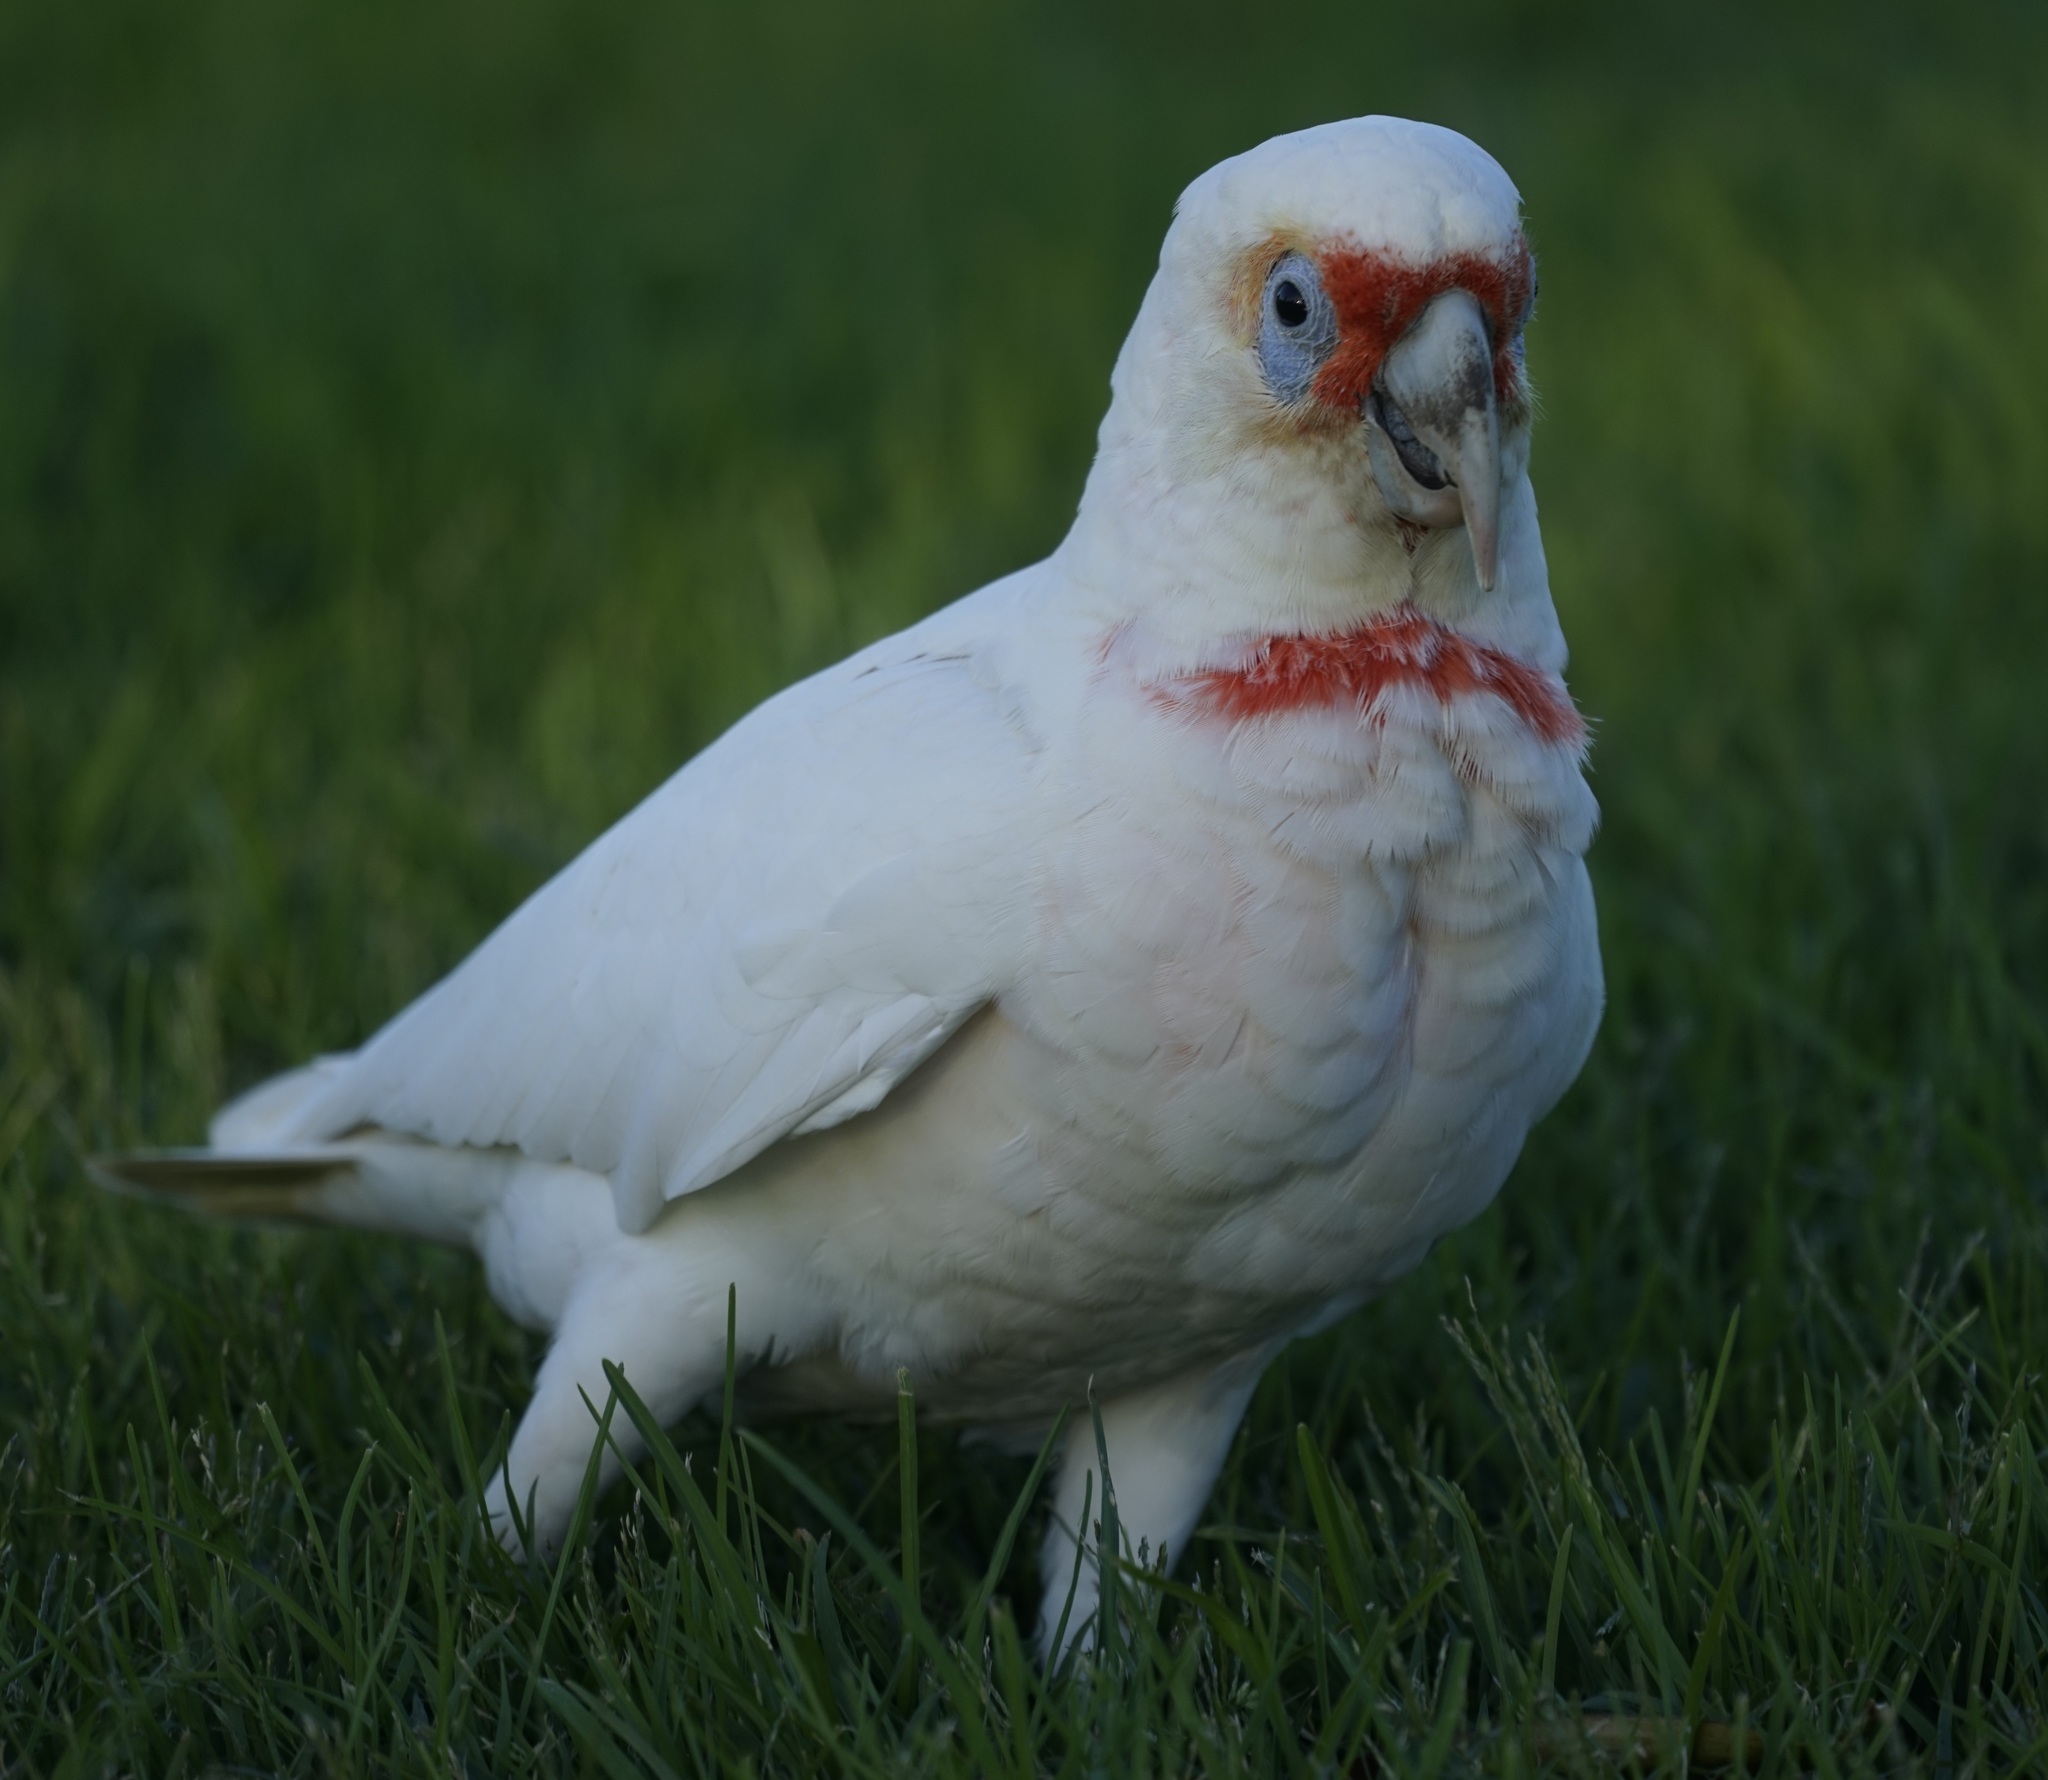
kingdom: Animalia
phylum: Chordata
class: Aves
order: Psittaciformes
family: Psittacidae
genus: Cacatua
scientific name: Cacatua tenuirostris
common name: Long-billed corella
